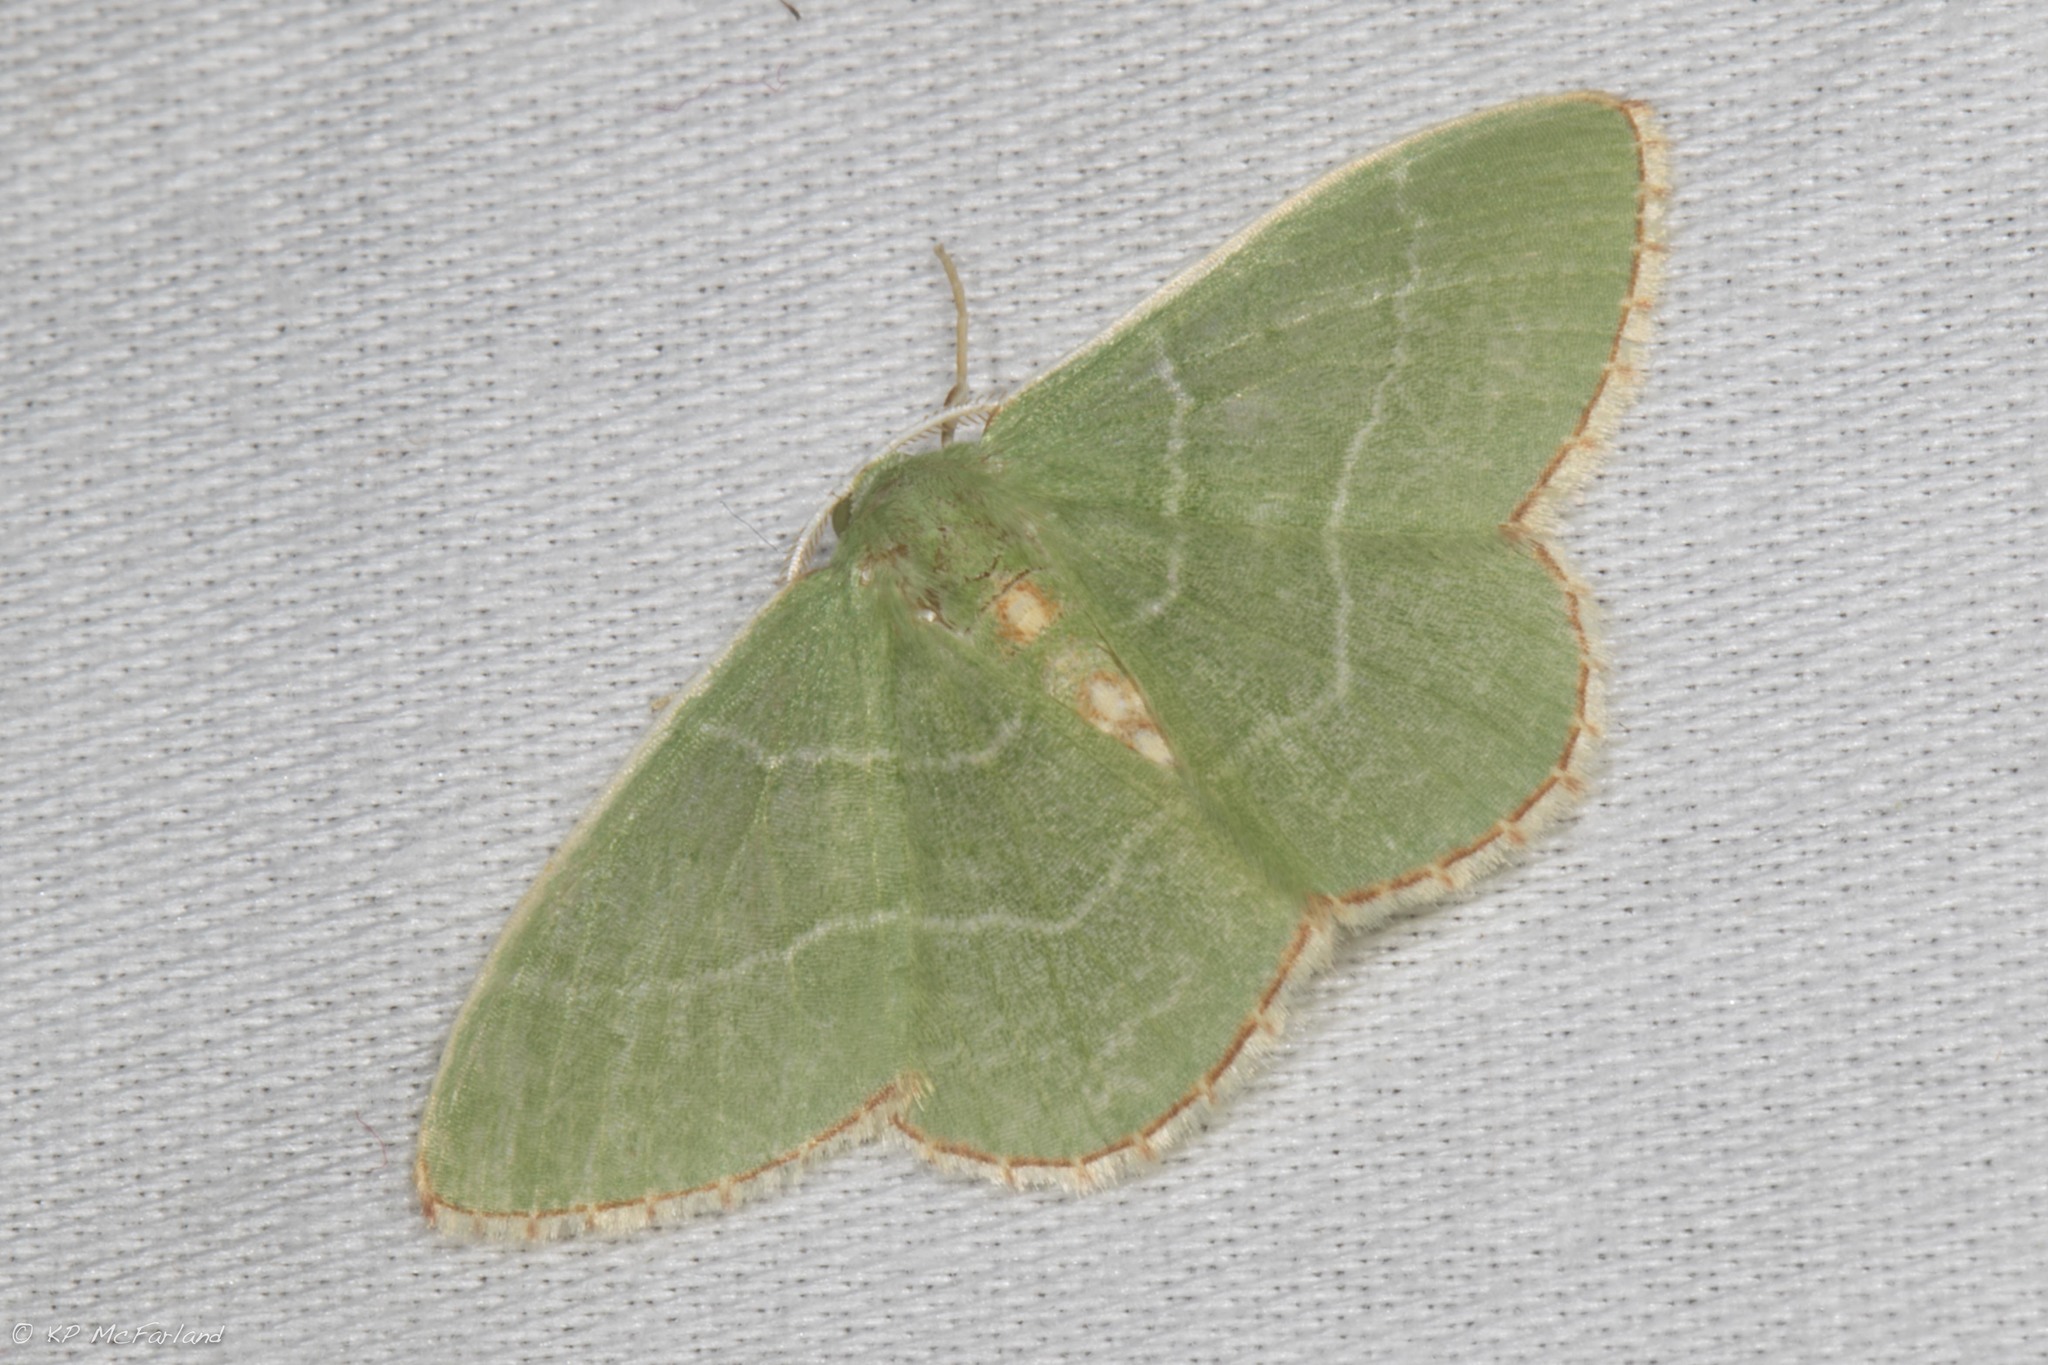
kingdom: Animalia
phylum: Arthropoda
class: Insecta
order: Lepidoptera
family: Geometridae
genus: Nemoria
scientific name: Nemoria bistriaria
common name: Red-fringed emerald
